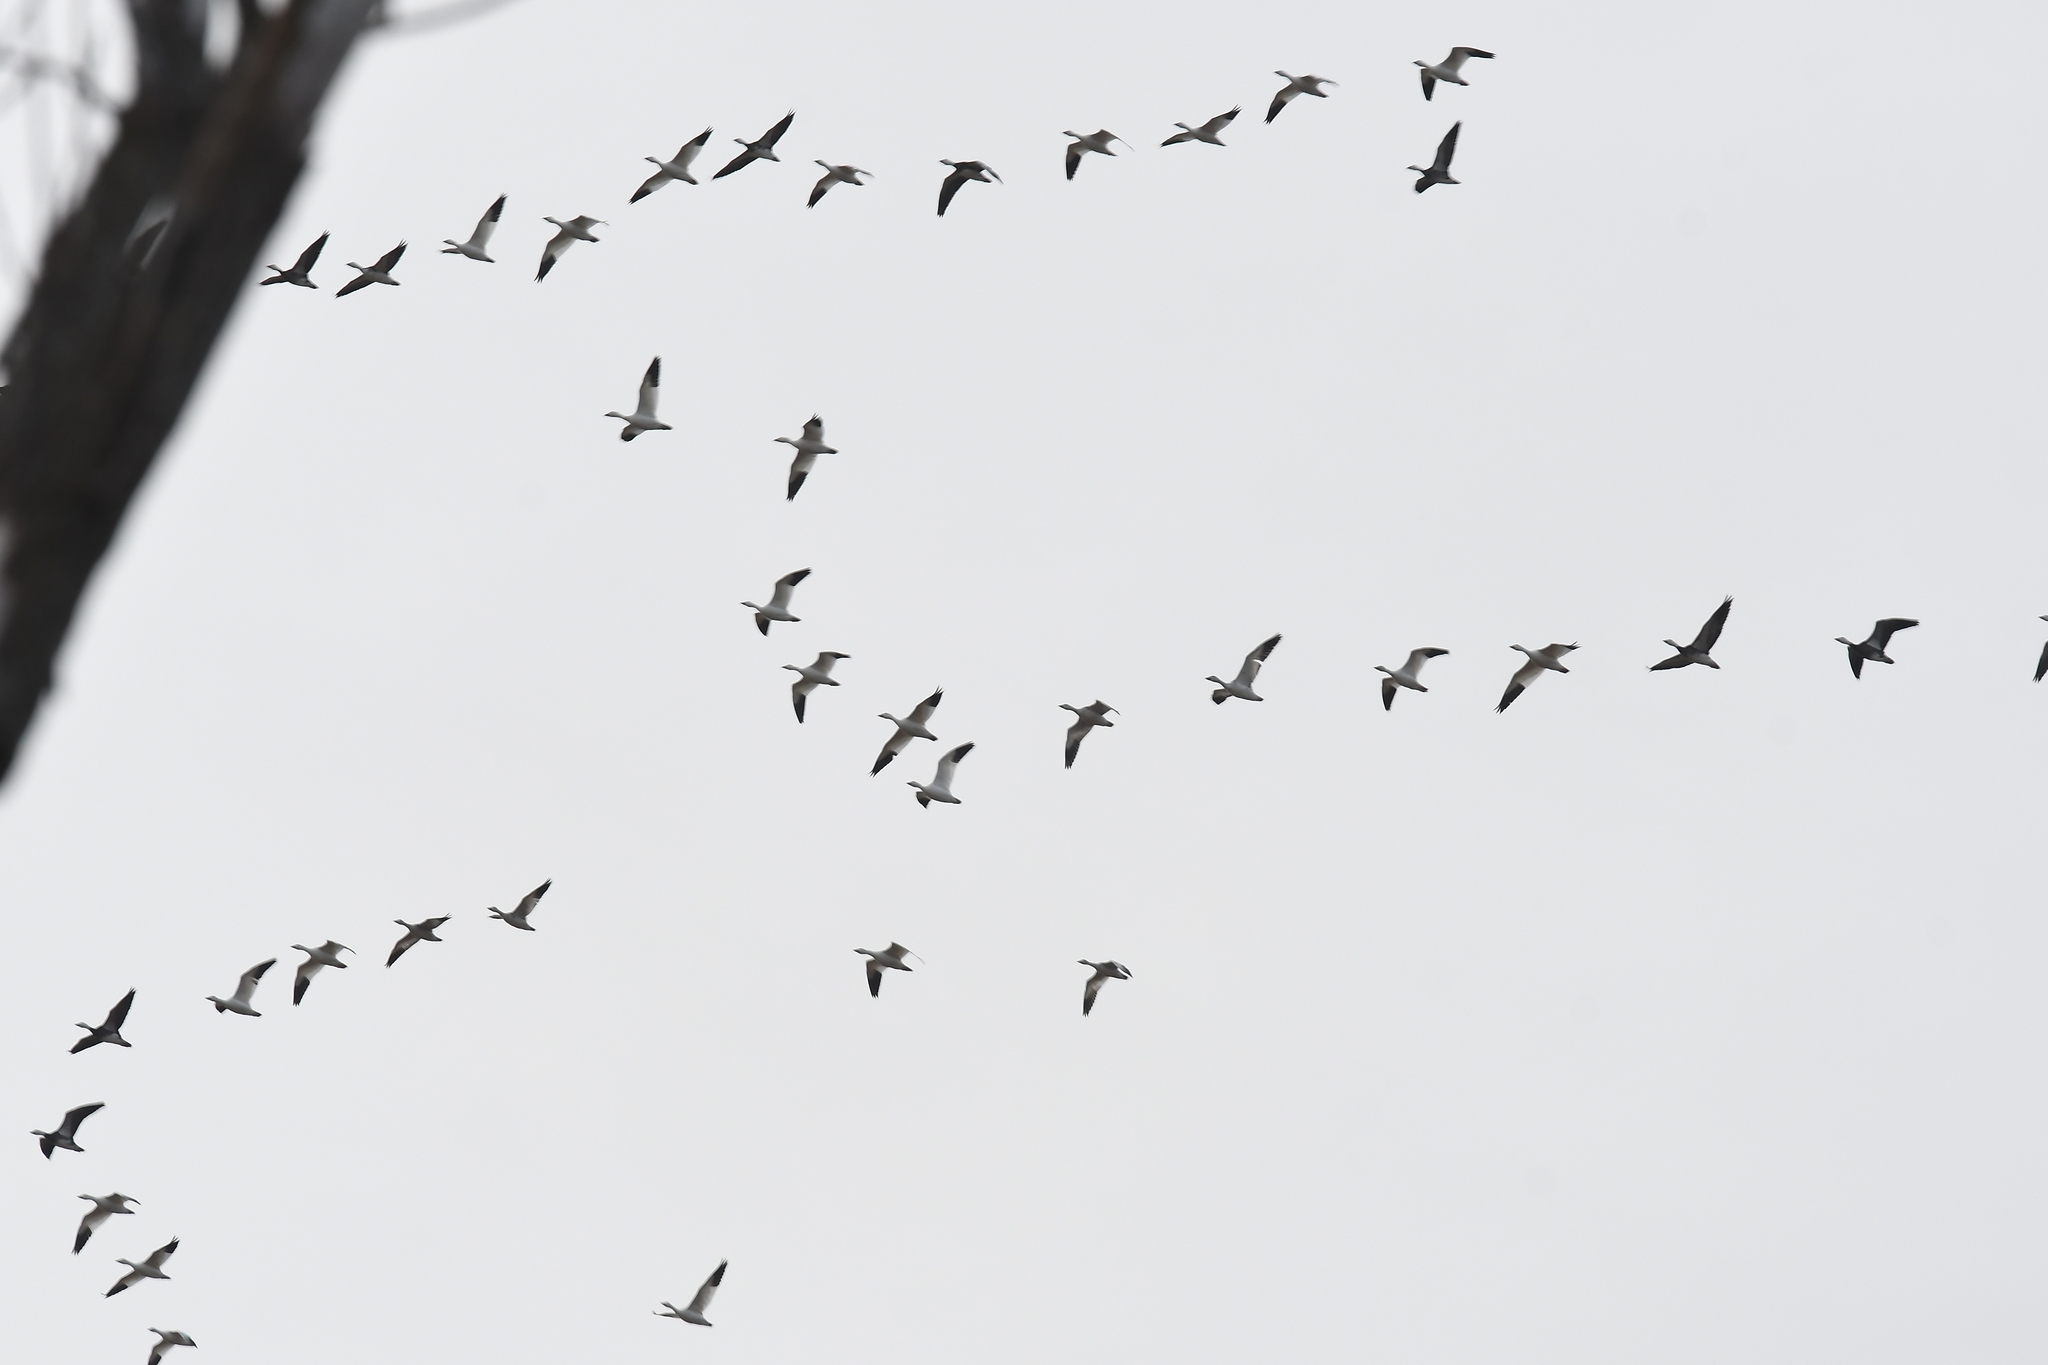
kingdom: Animalia
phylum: Chordata
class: Aves
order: Anseriformes
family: Anatidae
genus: Anser
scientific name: Anser caerulescens
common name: Snow goose
